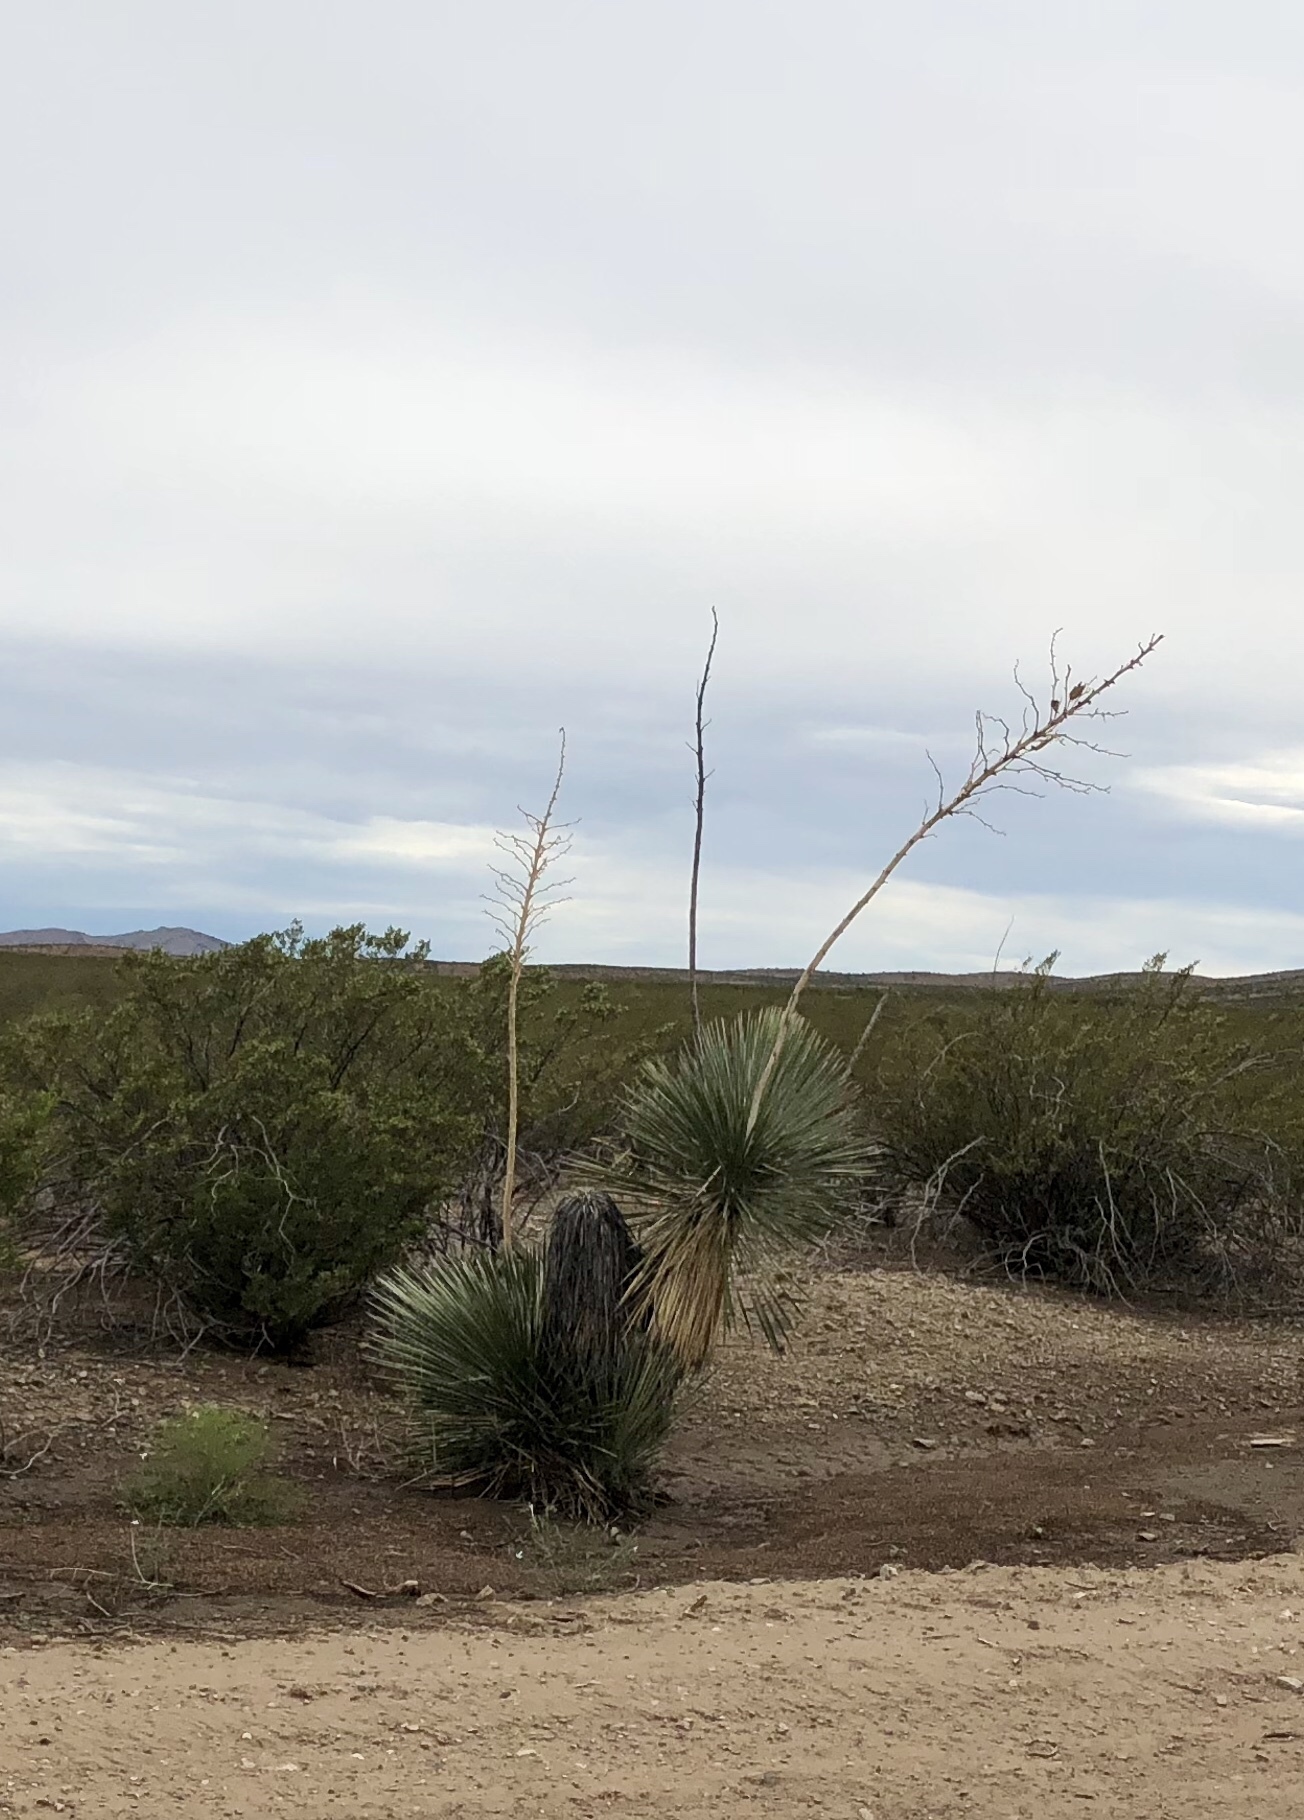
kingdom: Plantae
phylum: Tracheophyta
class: Liliopsida
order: Asparagales
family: Asparagaceae
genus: Yucca
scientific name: Yucca elata
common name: Palmella
